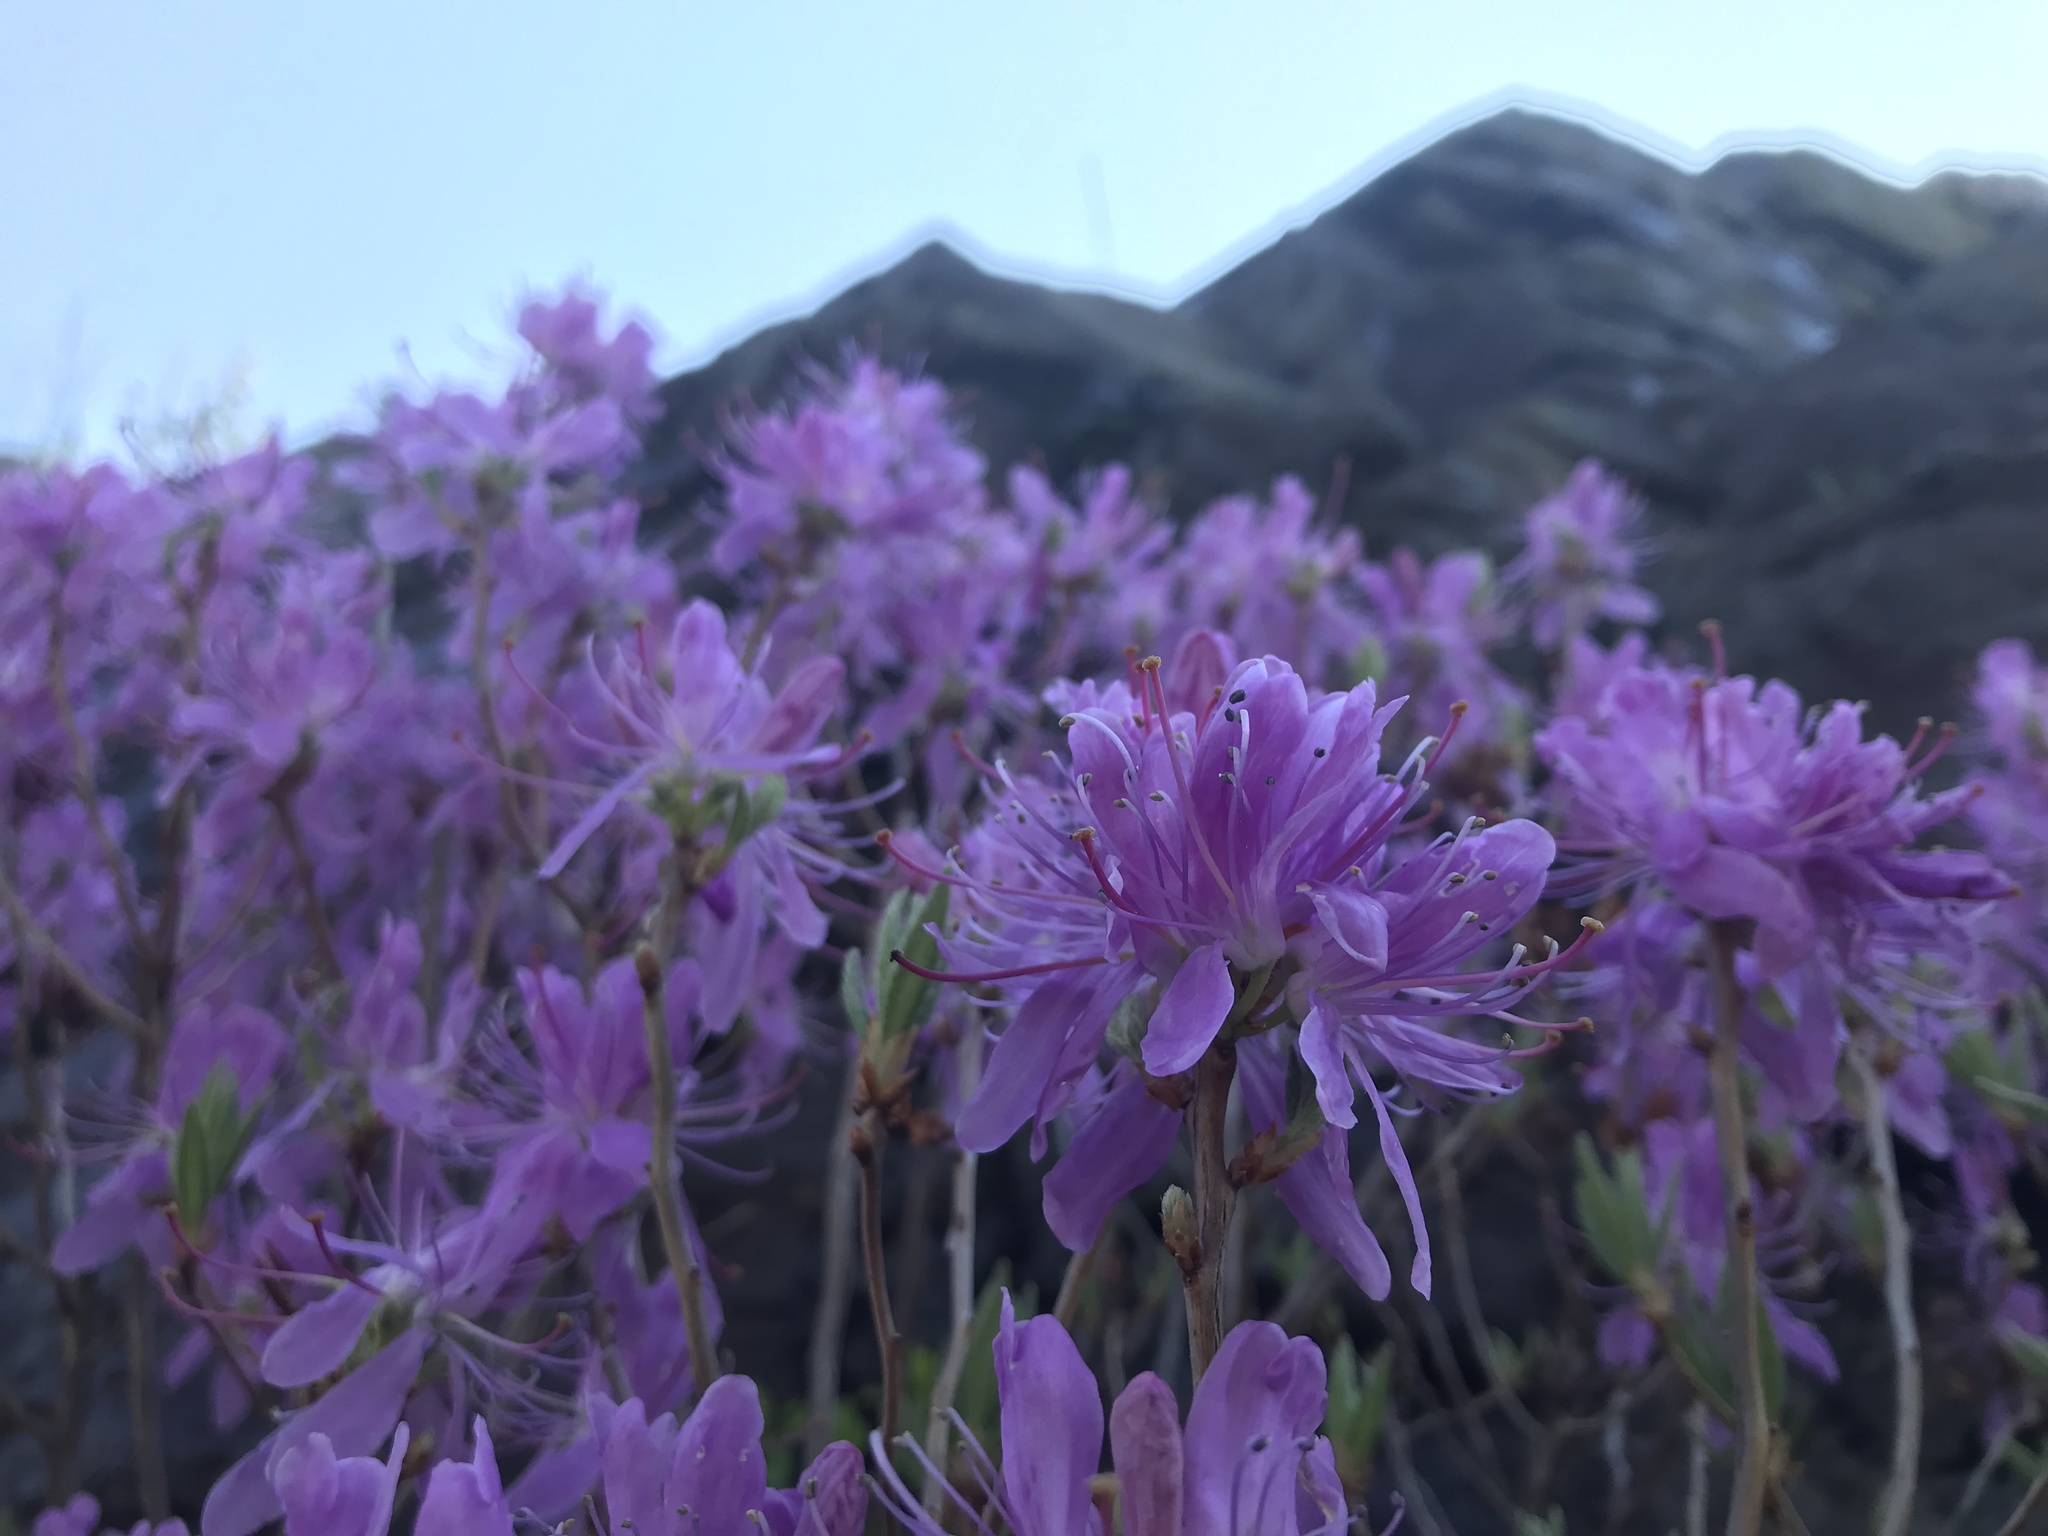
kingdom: Plantae
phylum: Tracheophyta
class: Magnoliopsida
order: Ericales
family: Ericaceae
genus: Rhododendron
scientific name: Rhododendron canadense
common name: Rhodora
